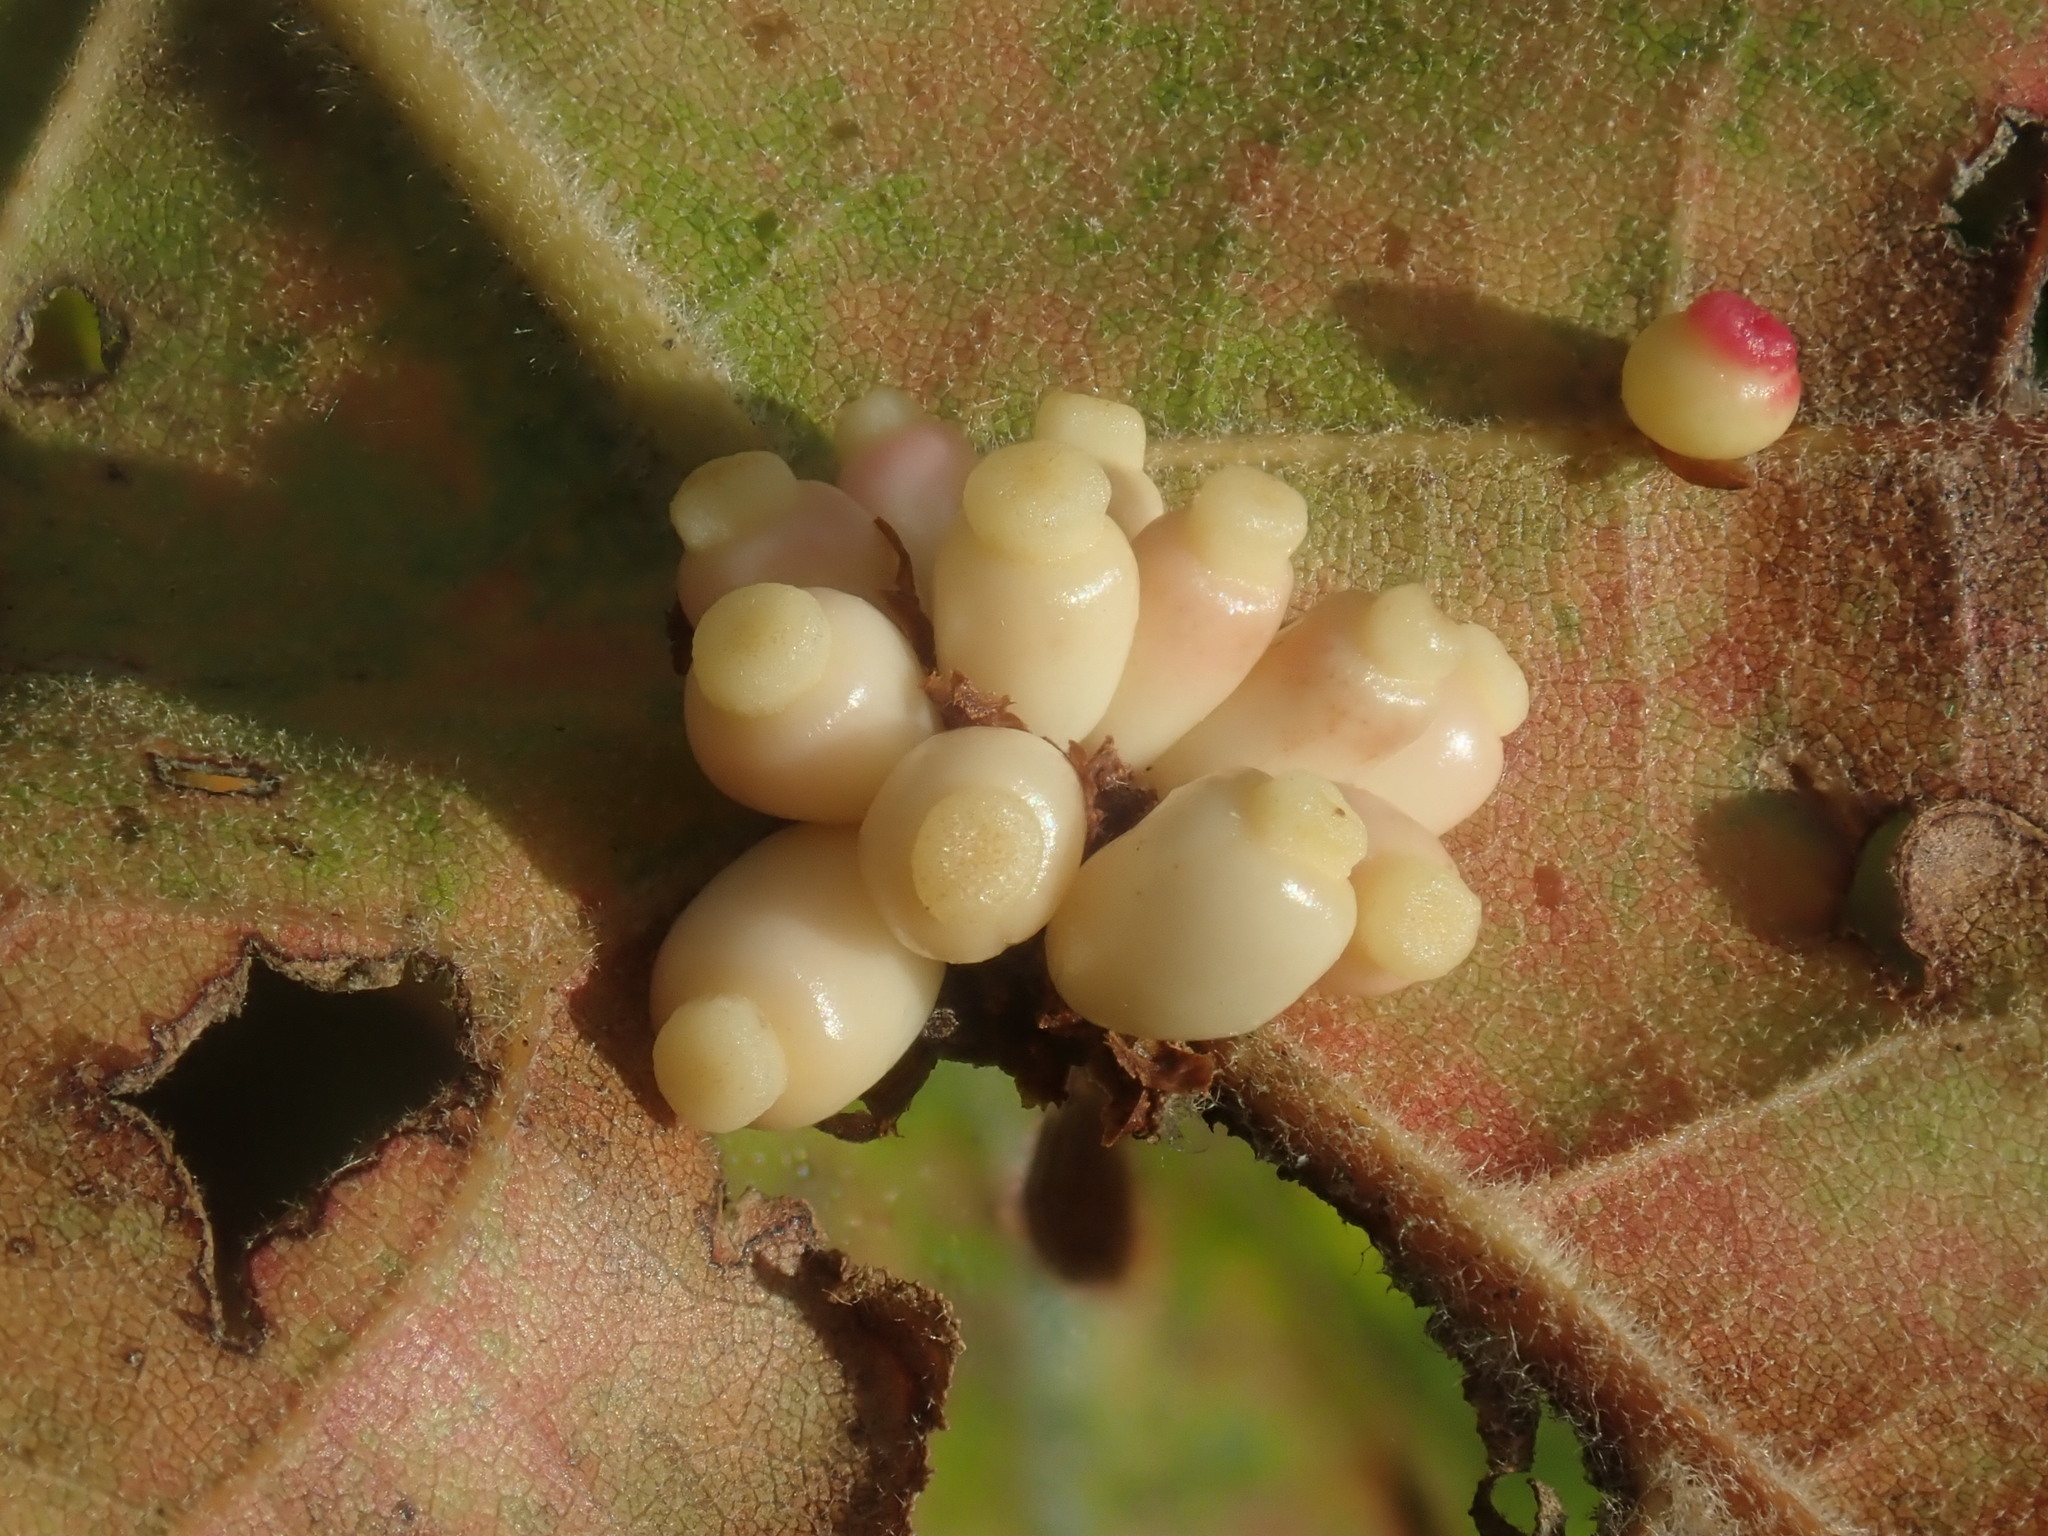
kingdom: Animalia
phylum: Arthropoda
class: Insecta
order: Hymenoptera
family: Cynipidae
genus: Kokkocynips
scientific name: Kokkocynips decidua
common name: Oak wheat gall
